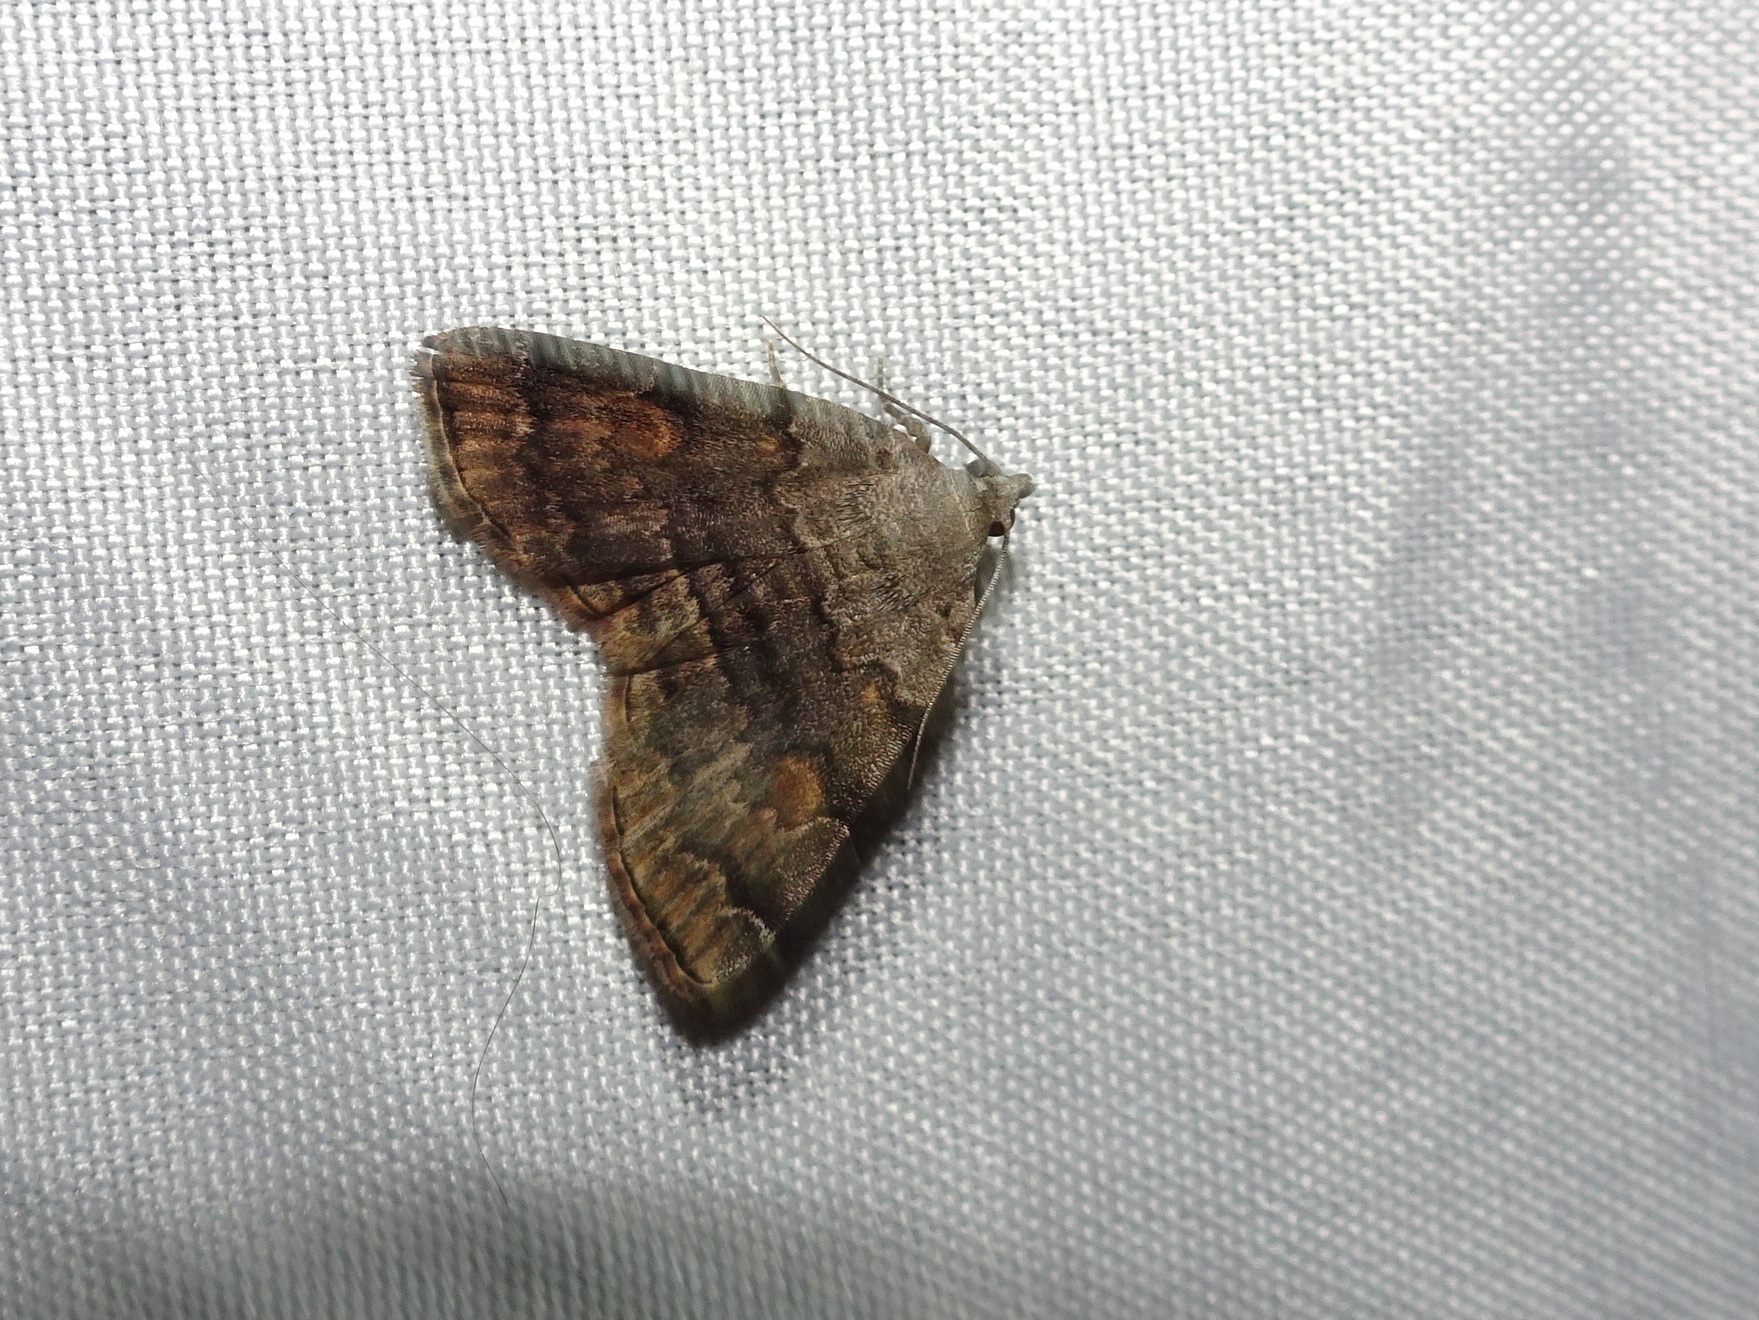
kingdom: Animalia
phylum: Arthropoda
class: Insecta
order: Lepidoptera
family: Erebidae
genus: Idia
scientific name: Idia americalis
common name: American idia moth
